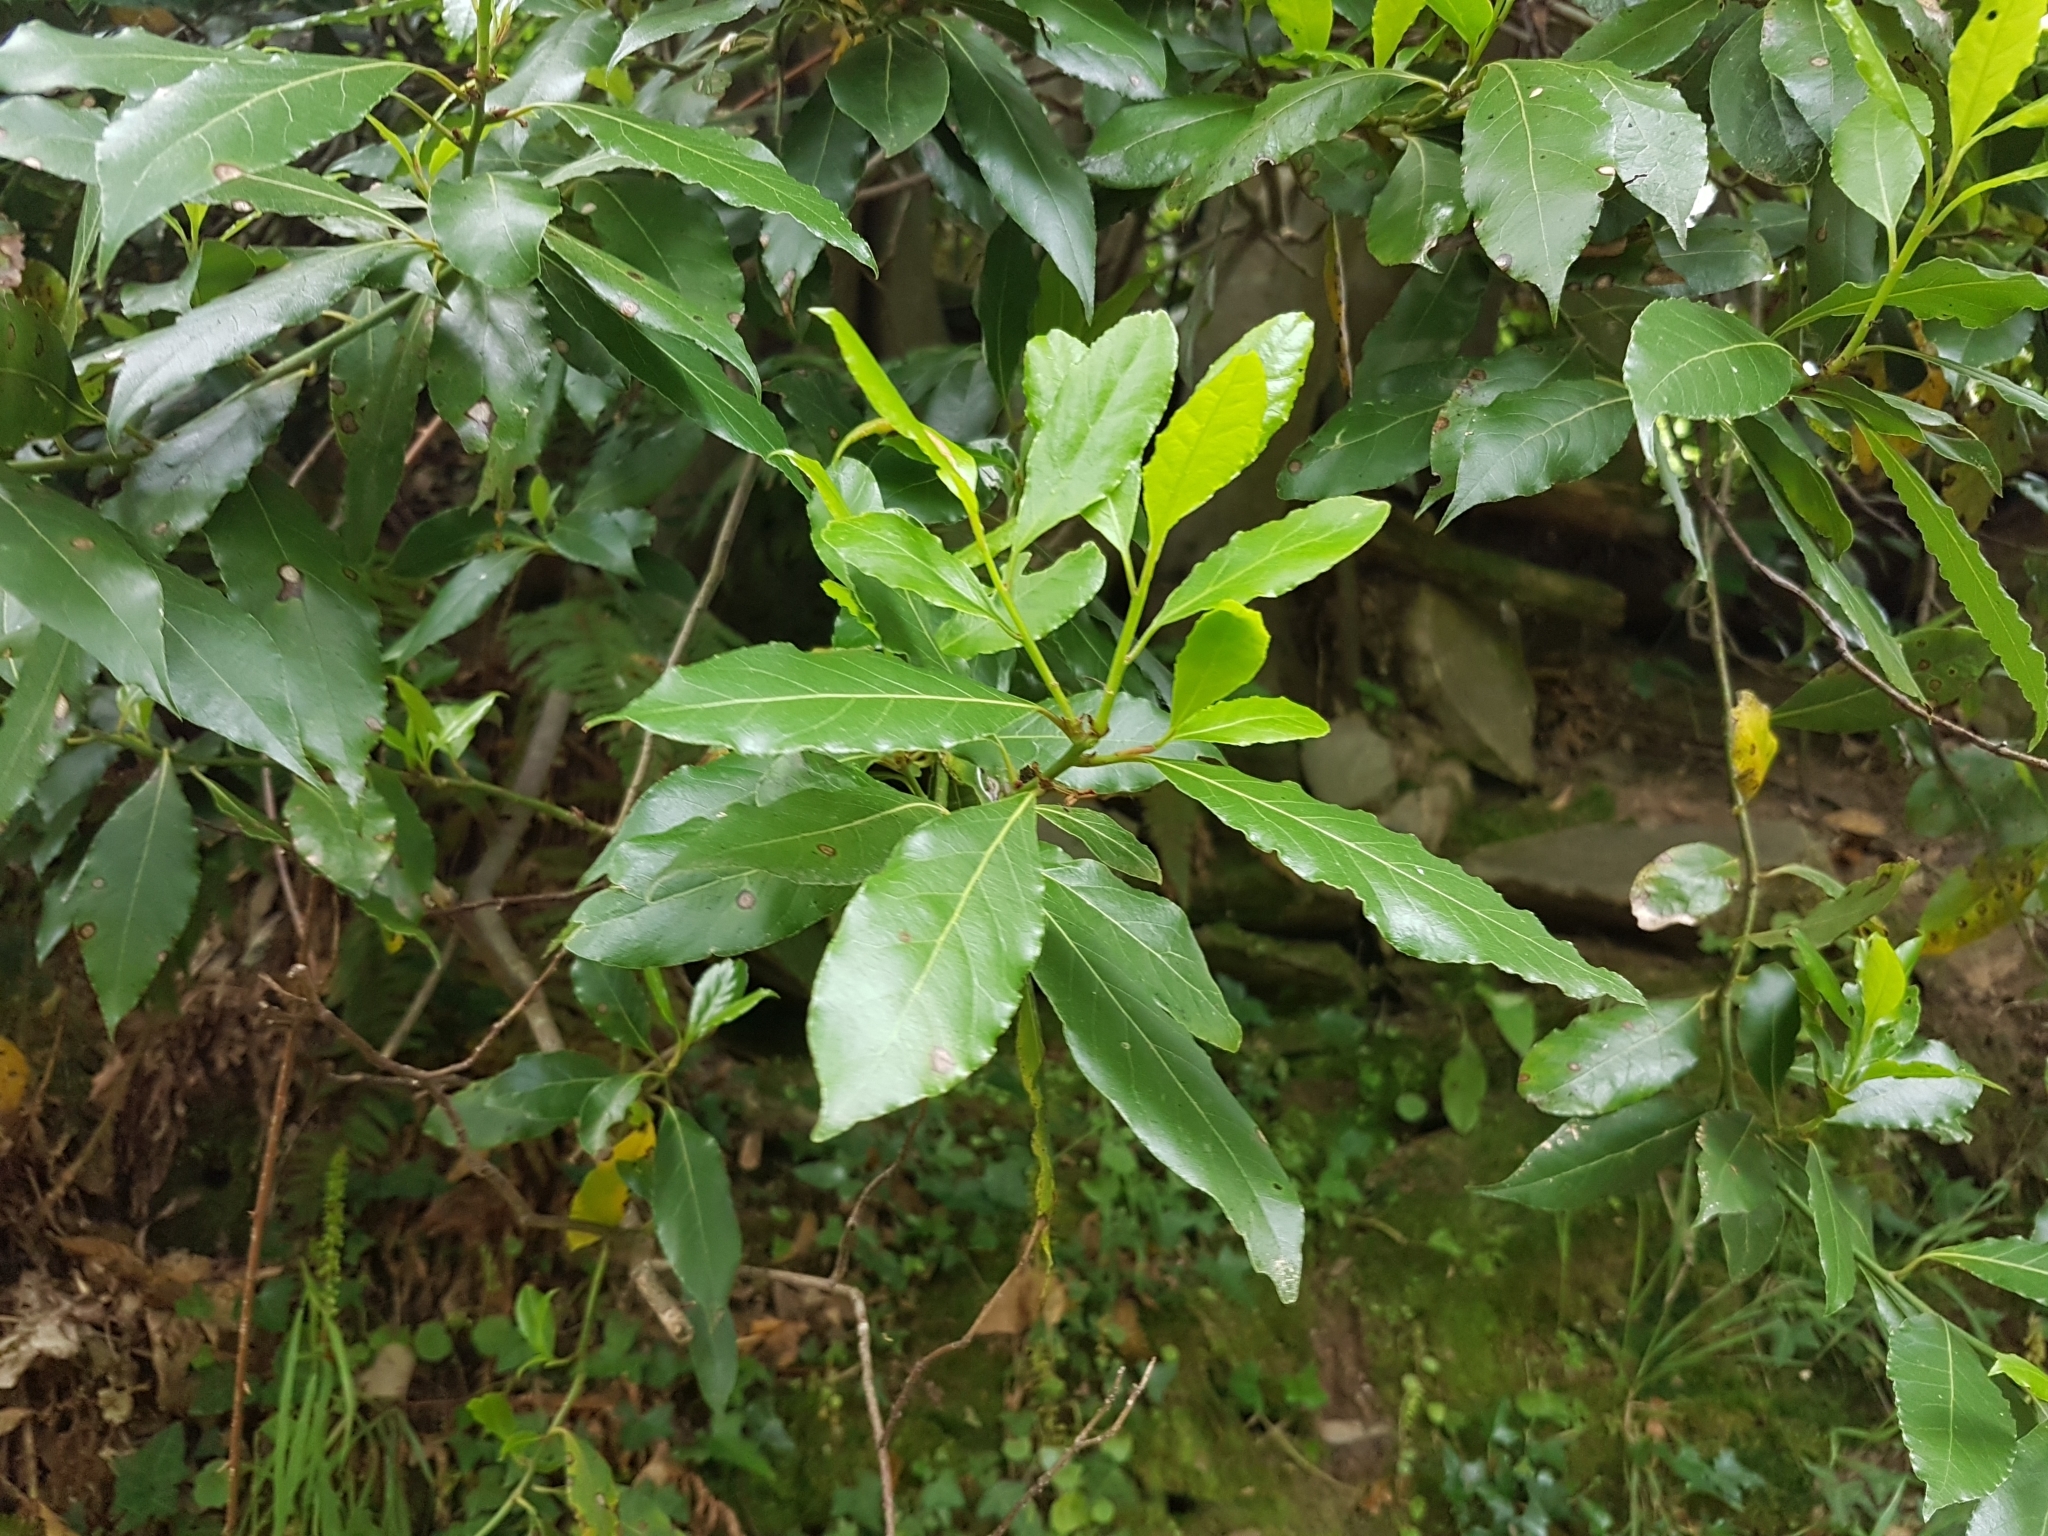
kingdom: Plantae
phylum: Tracheophyta
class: Magnoliopsida
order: Laurales
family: Lauraceae
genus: Laurus
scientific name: Laurus nobilis
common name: Bay
